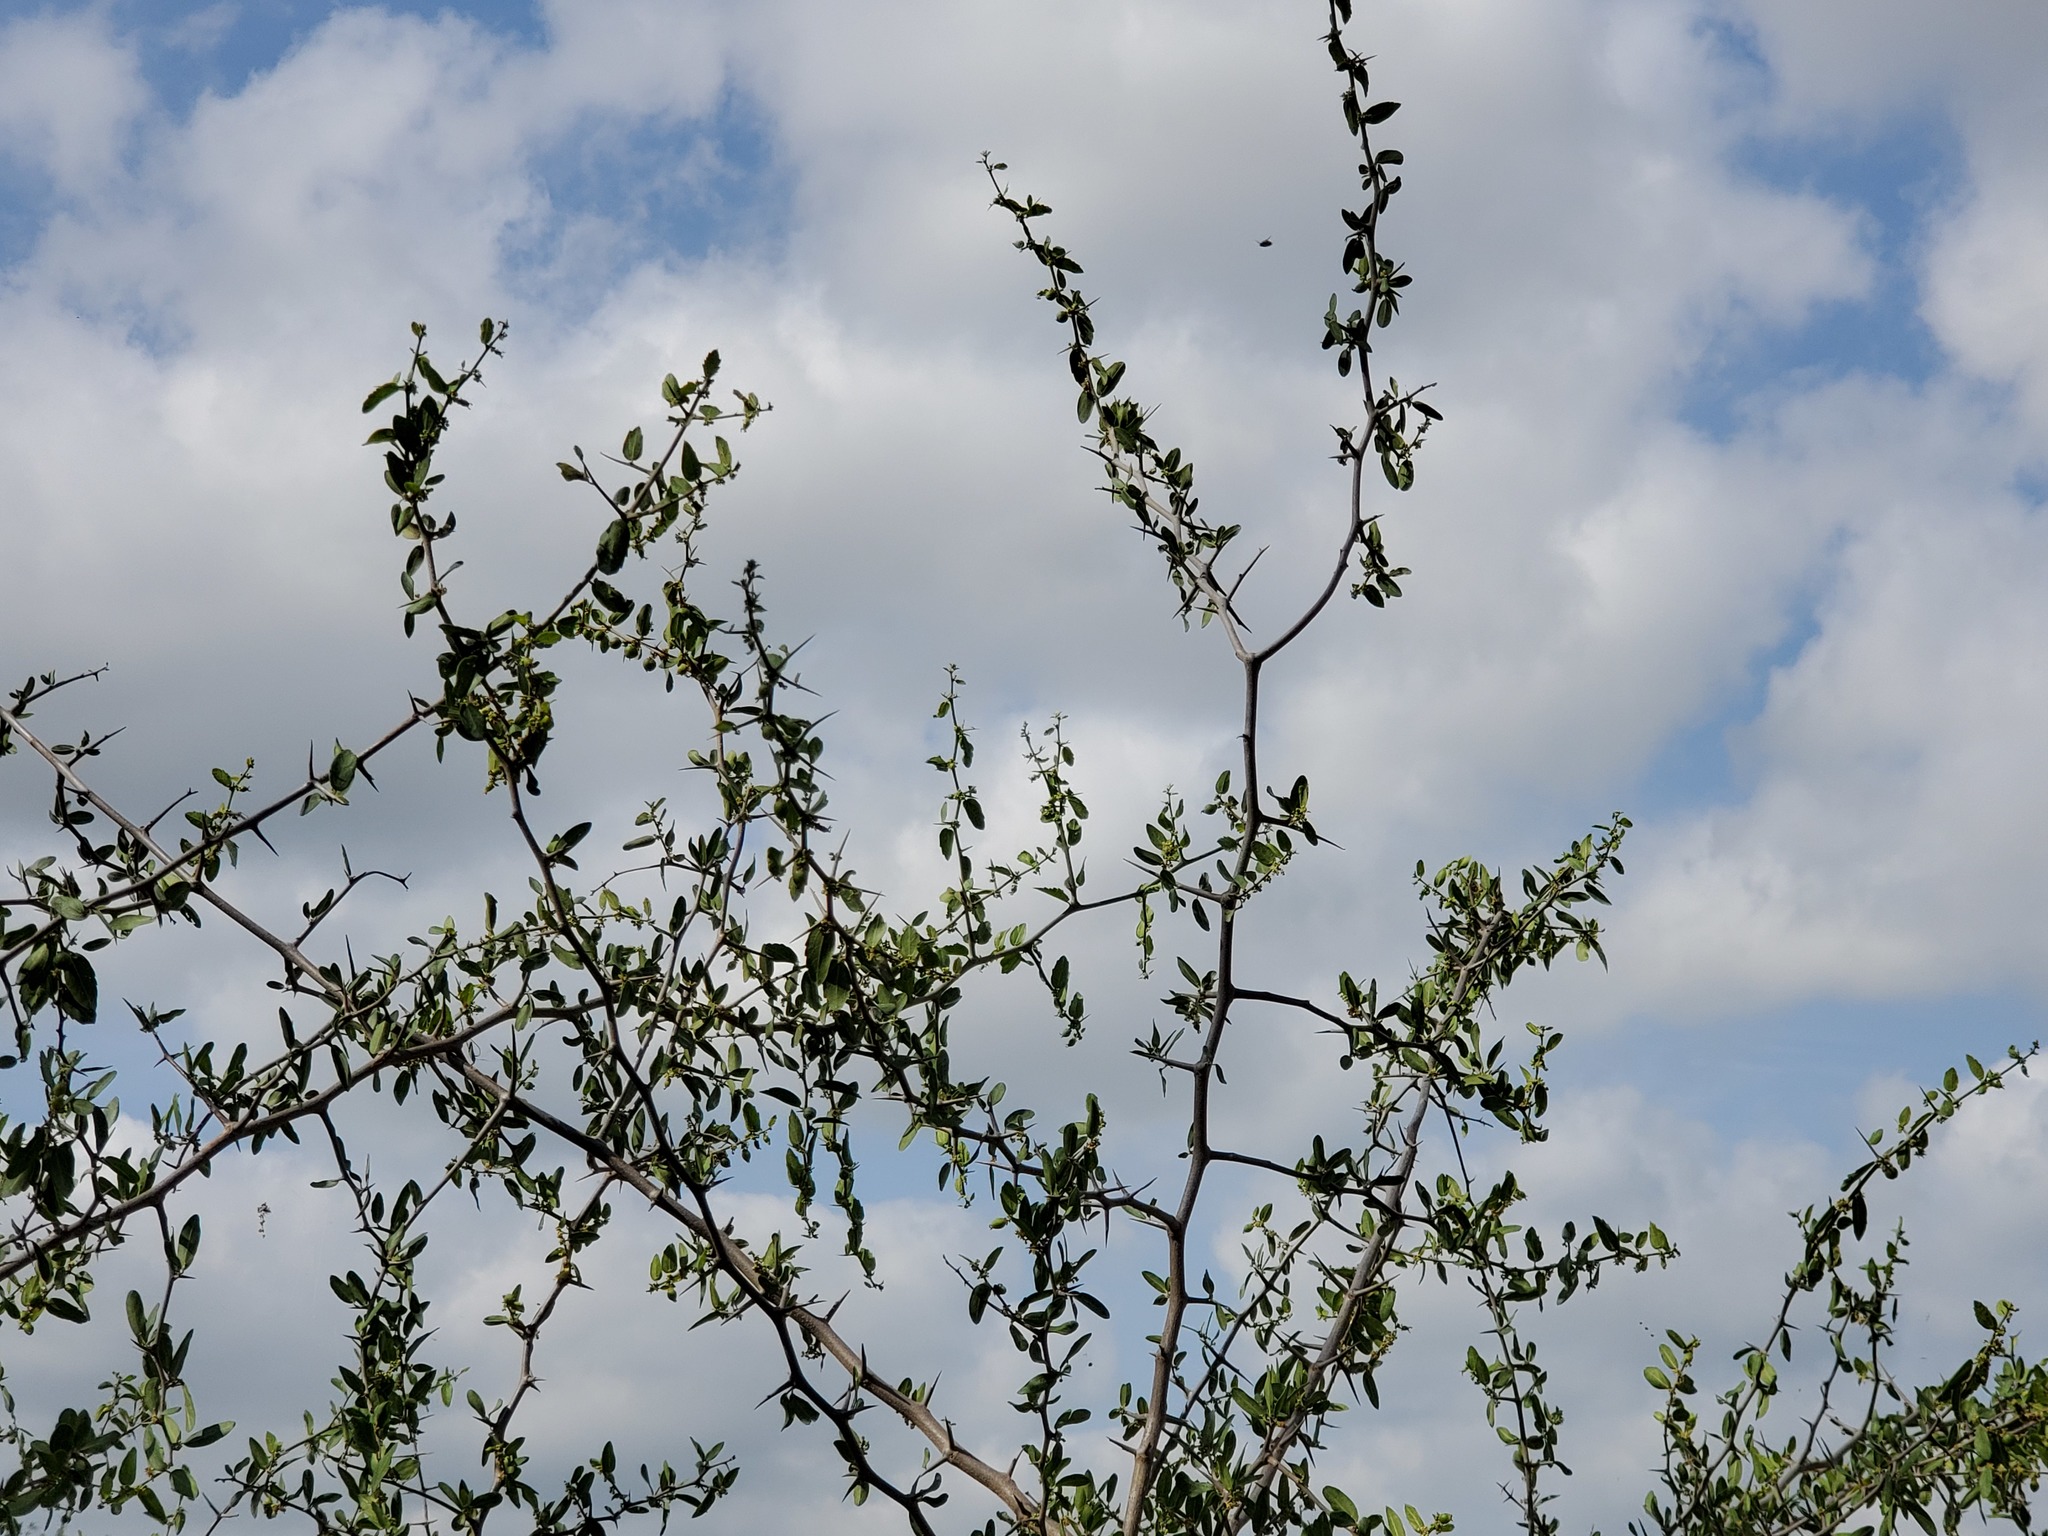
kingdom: Plantae
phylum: Tracheophyta
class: Magnoliopsida
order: Rosales
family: Cannabaceae
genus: Celtis
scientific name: Celtis pallida
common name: Desert hackberry
